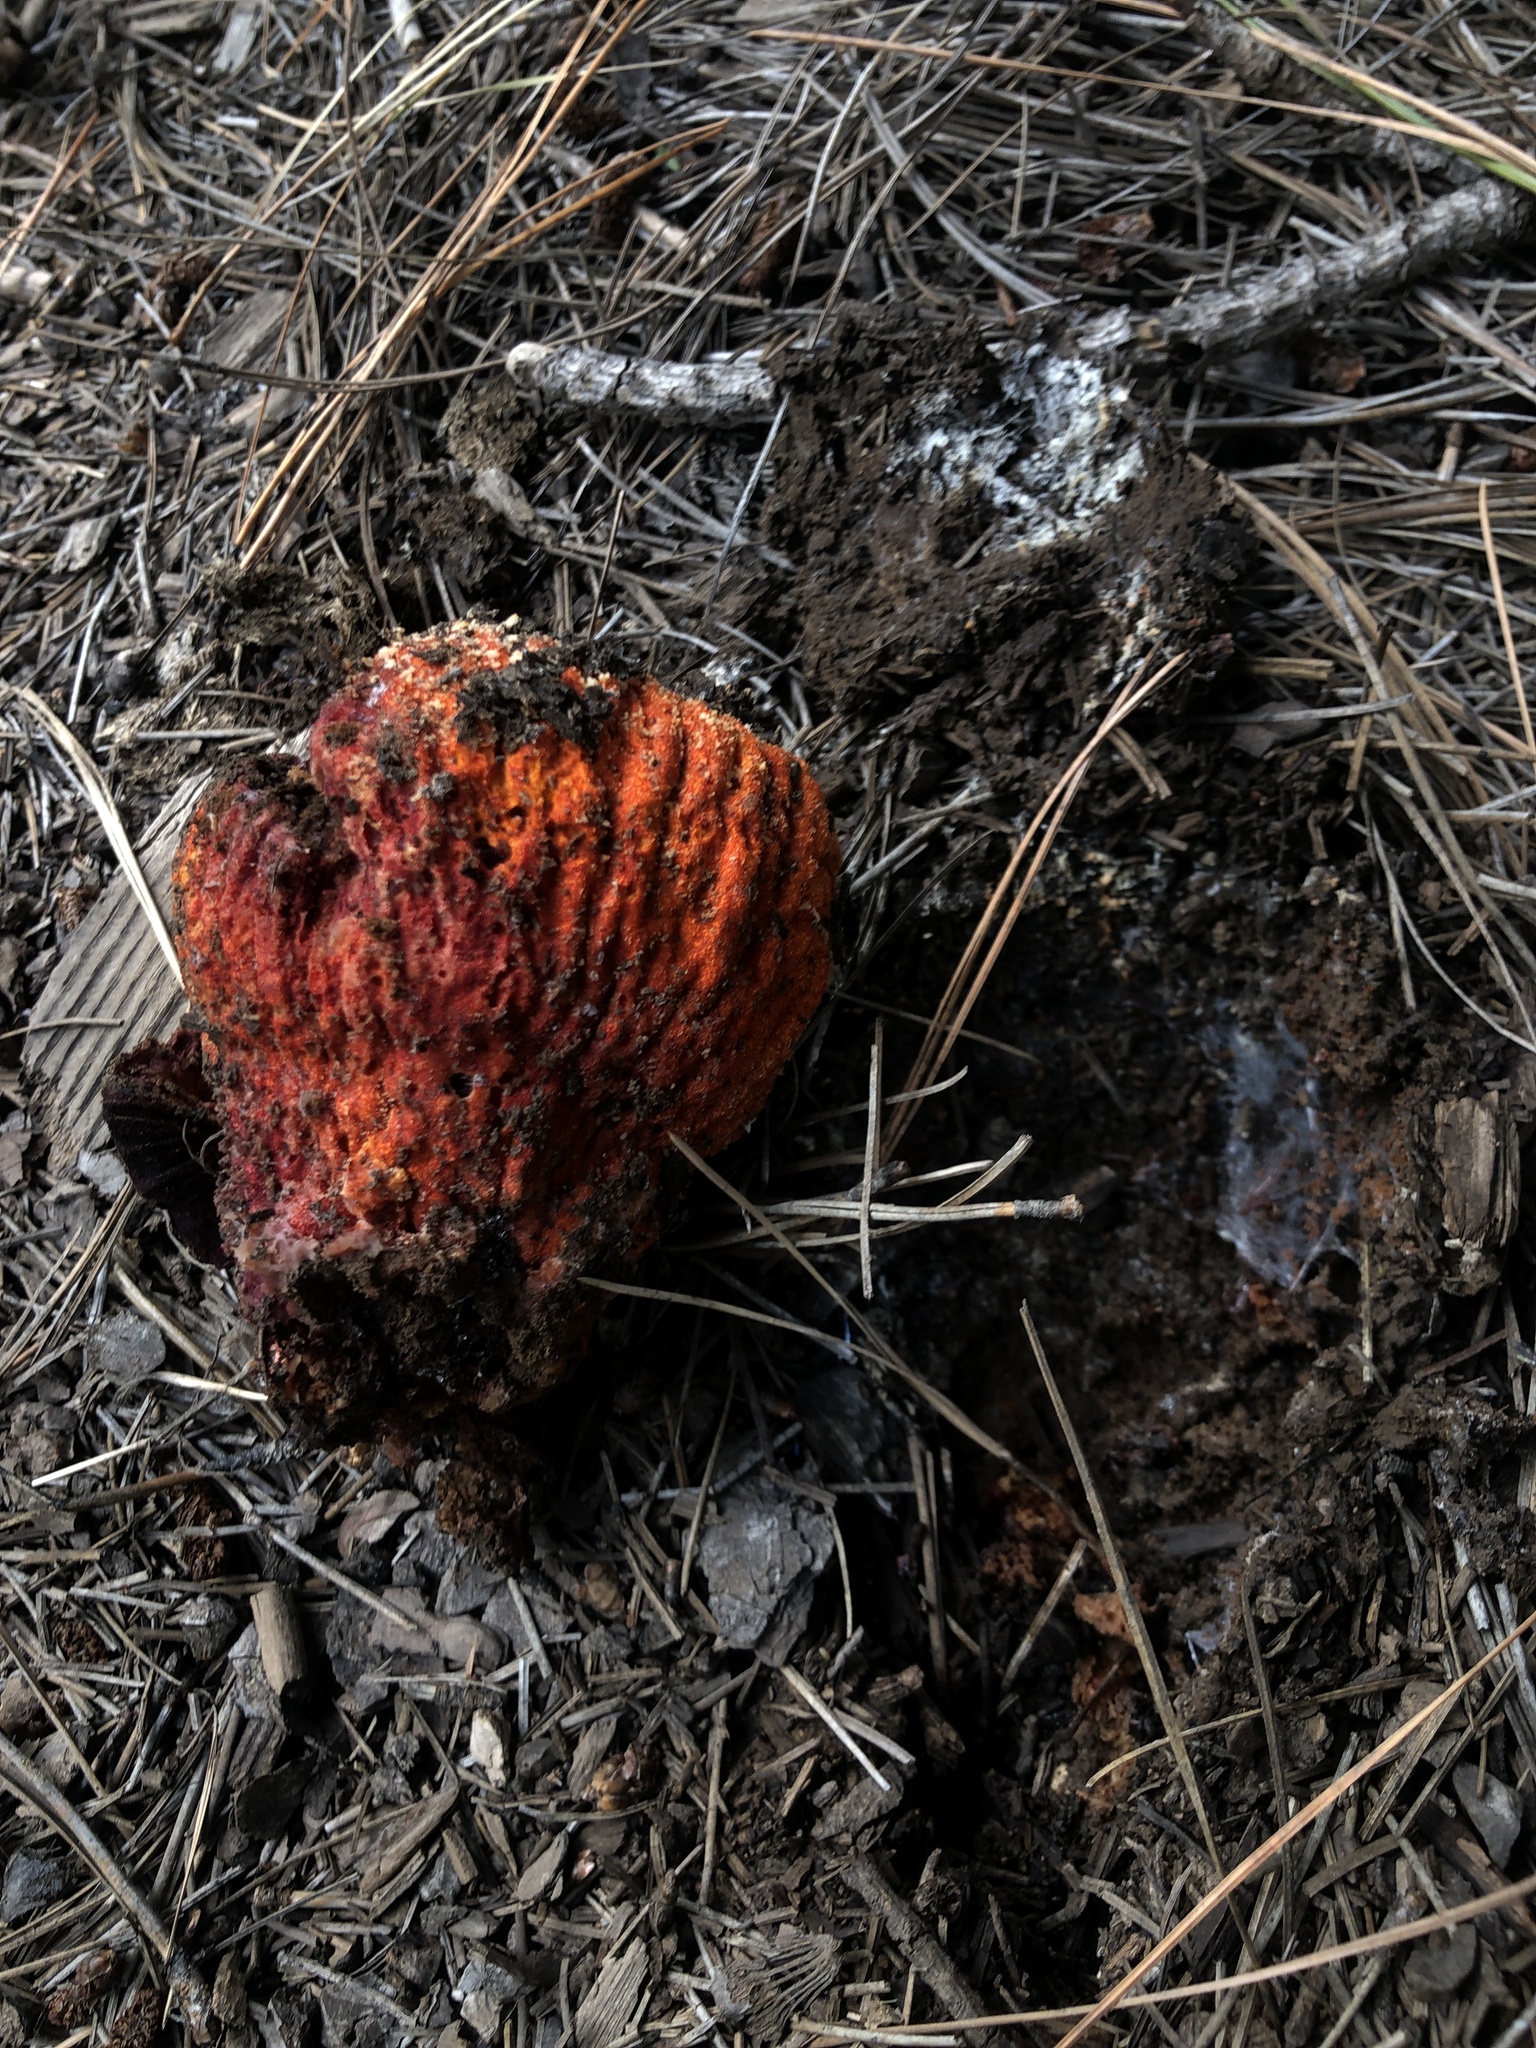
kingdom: Fungi
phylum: Ascomycota
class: Sordariomycetes
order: Hypocreales
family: Hypocreaceae
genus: Hypomyces
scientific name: Hypomyces lactifluorum
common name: Lobster mushroom
